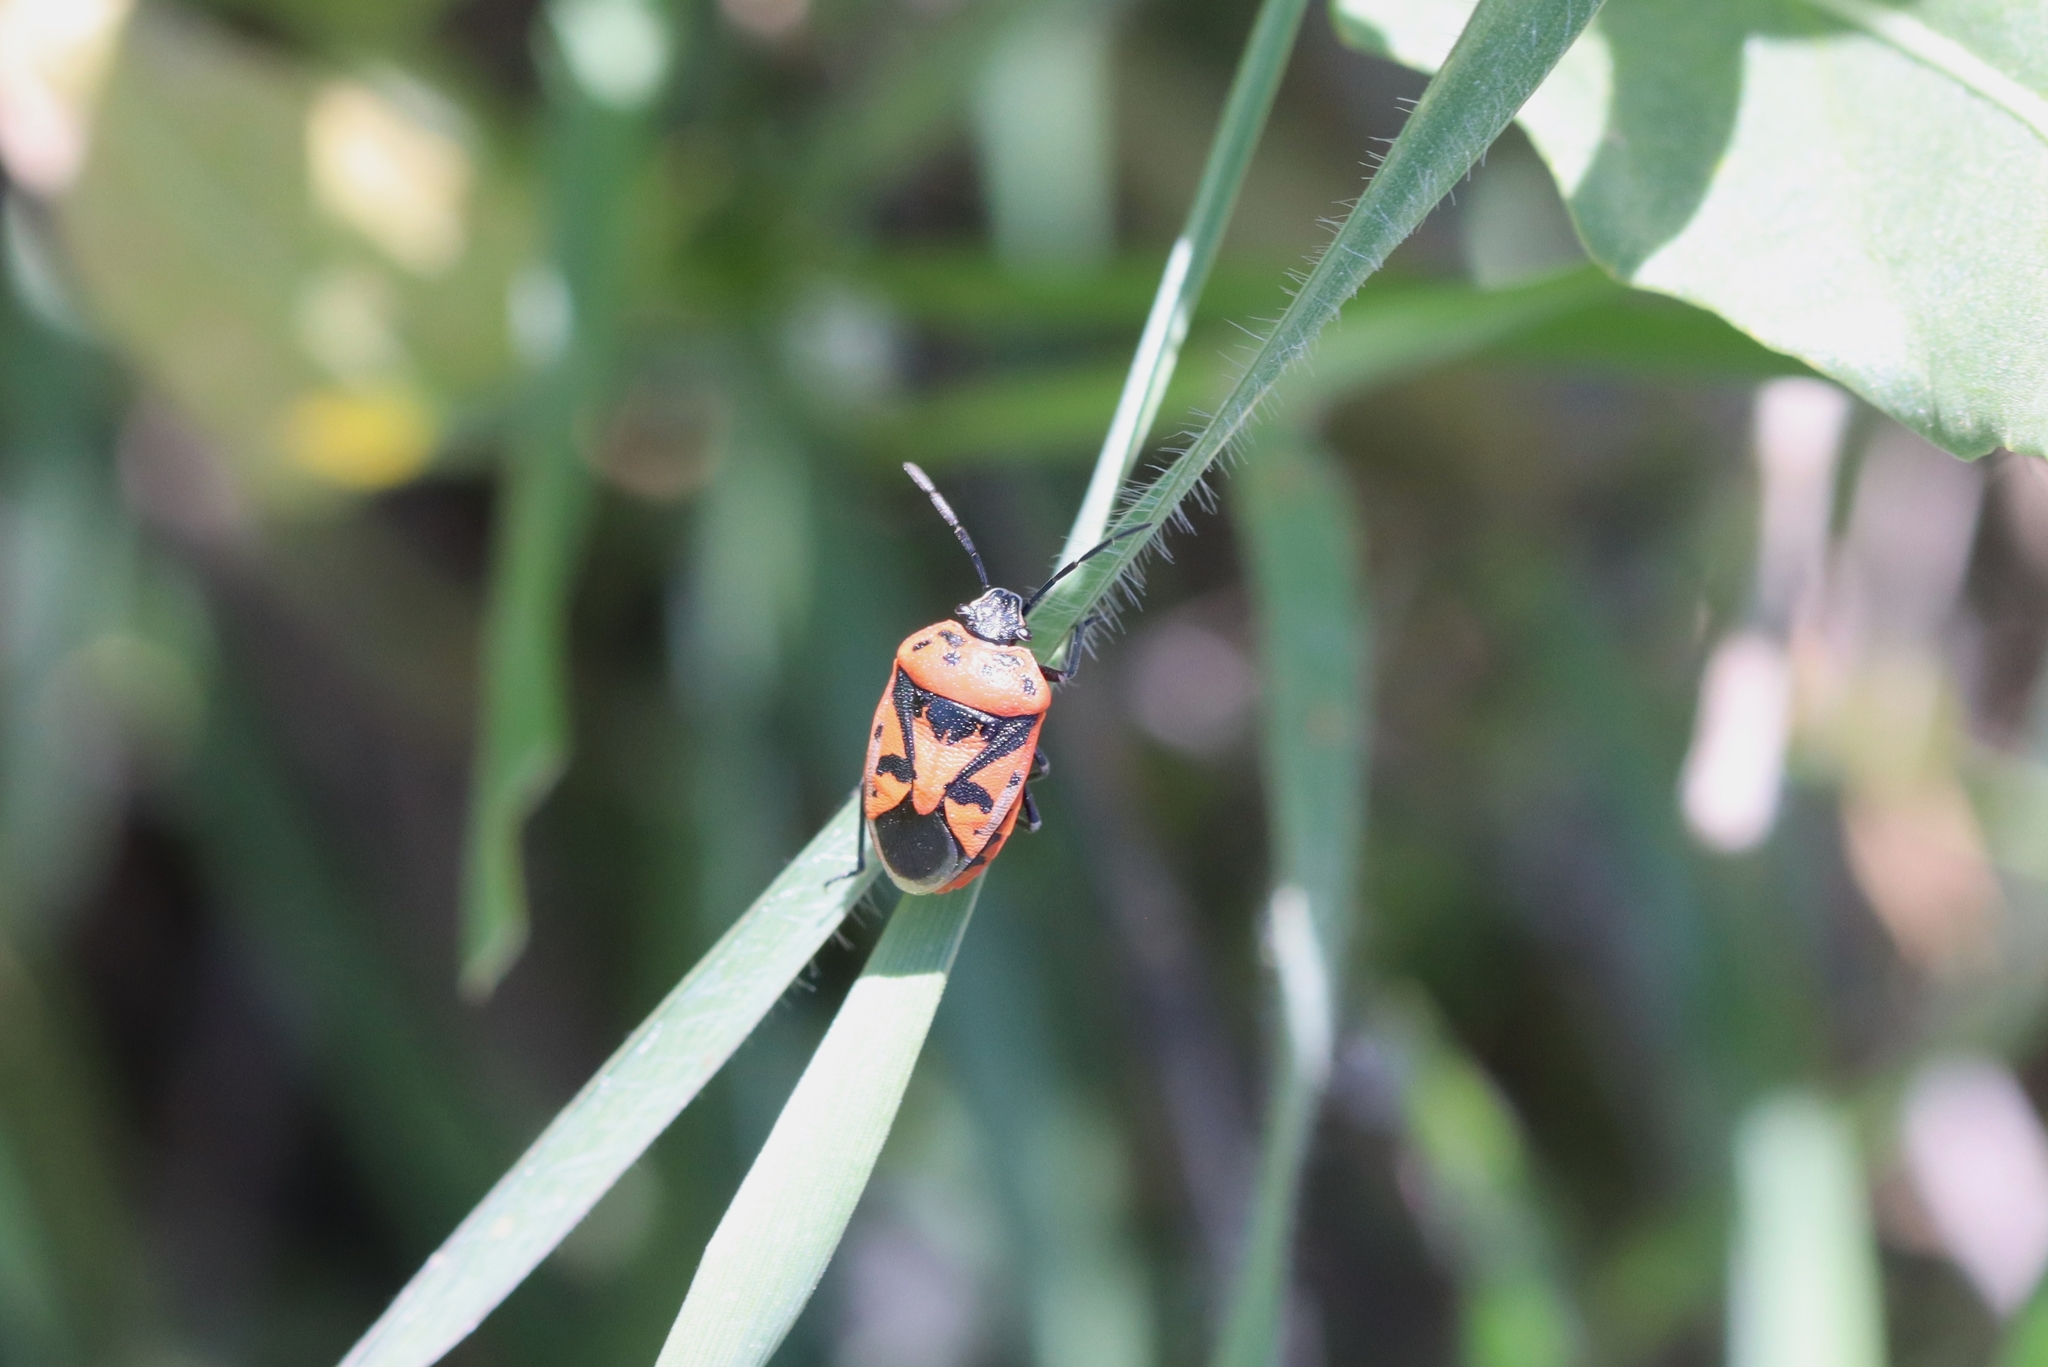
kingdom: Animalia
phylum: Arthropoda
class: Insecta
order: Hemiptera
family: Pentatomidae
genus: Eurydema
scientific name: Eurydema ornata
